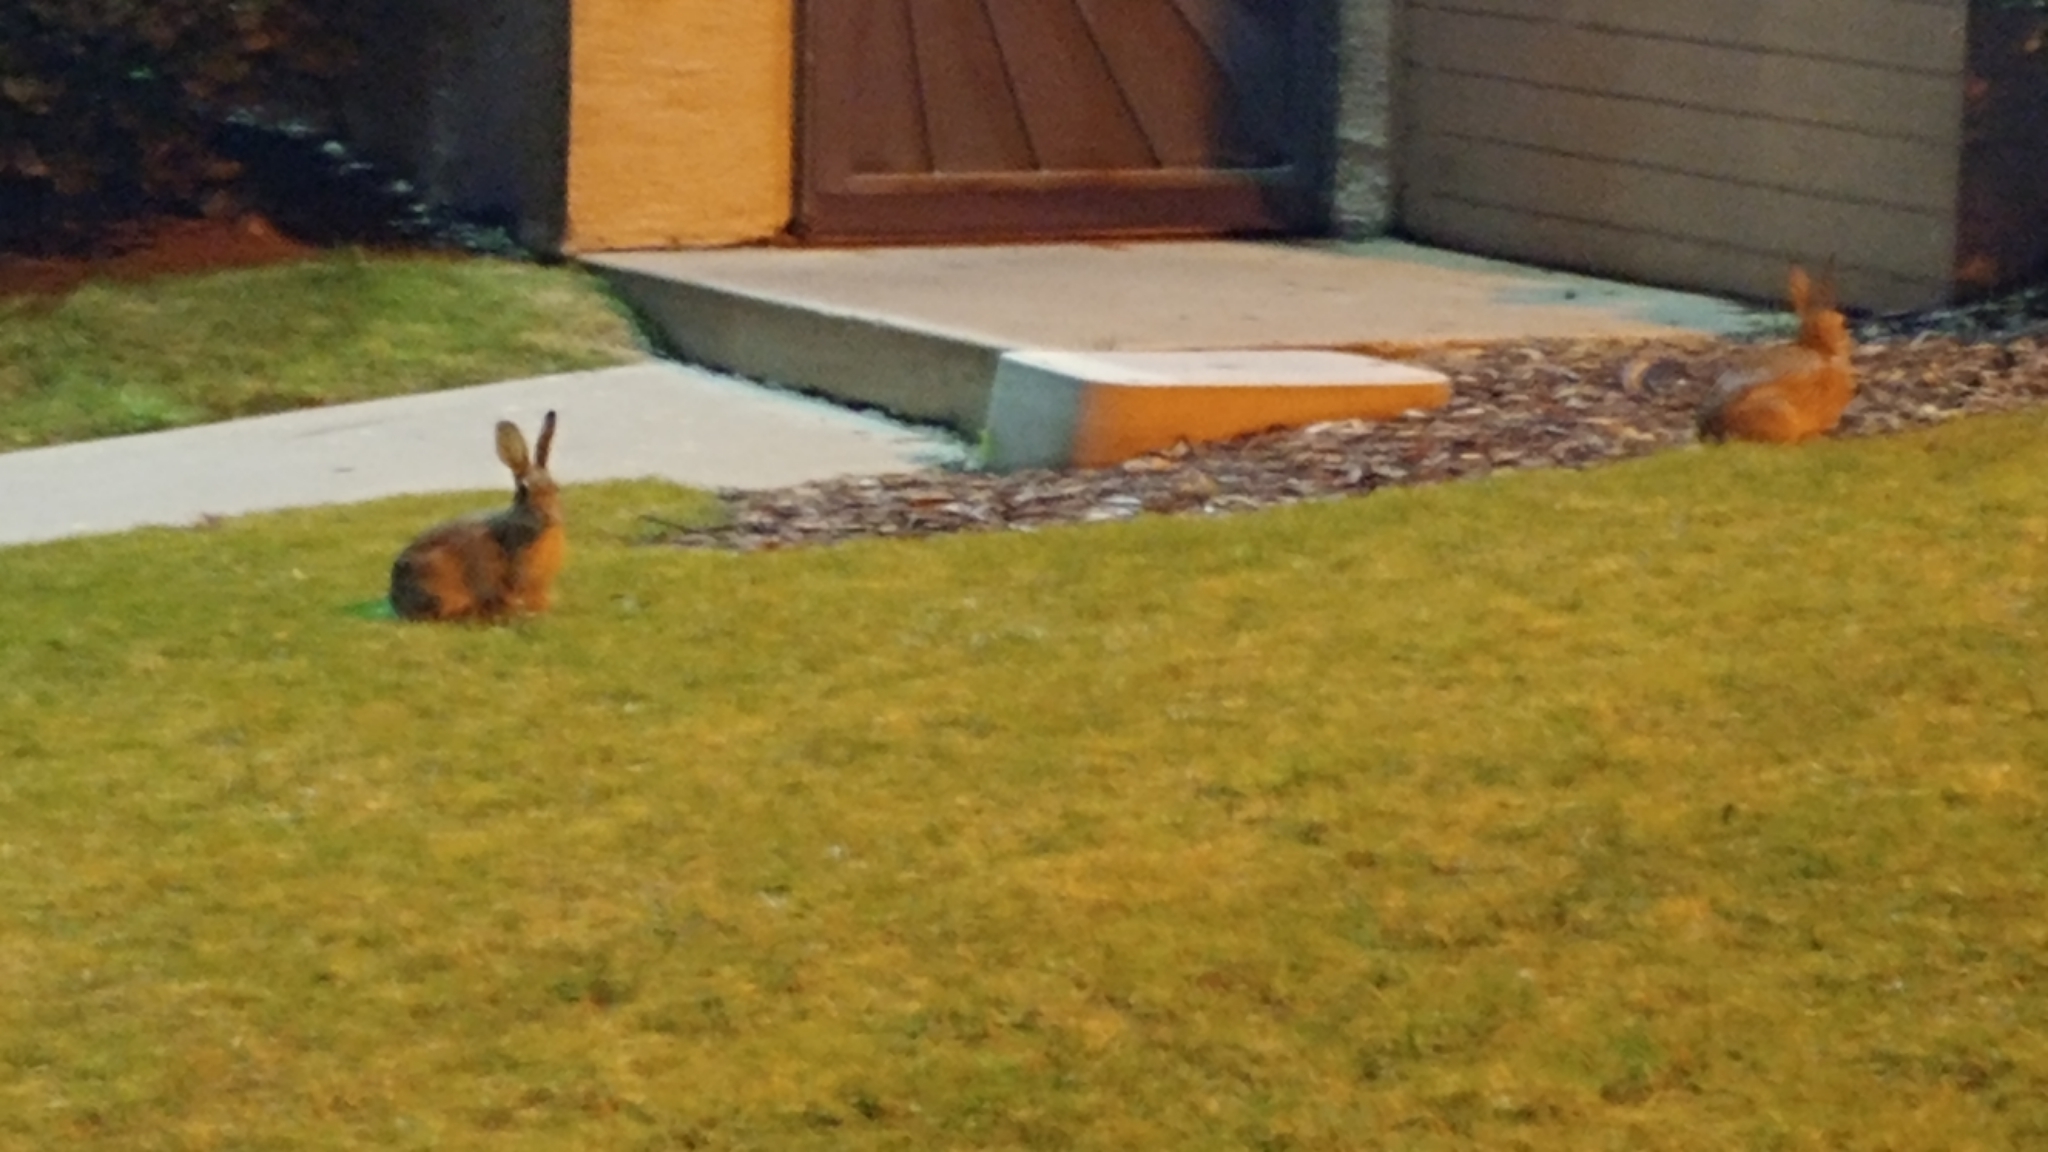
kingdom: Animalia
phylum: Chordata
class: Mammalia
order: Lagomorpha
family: Leporidae
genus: Sylvilagus
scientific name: Sylvilagus audubonii
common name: Desert cottontail
